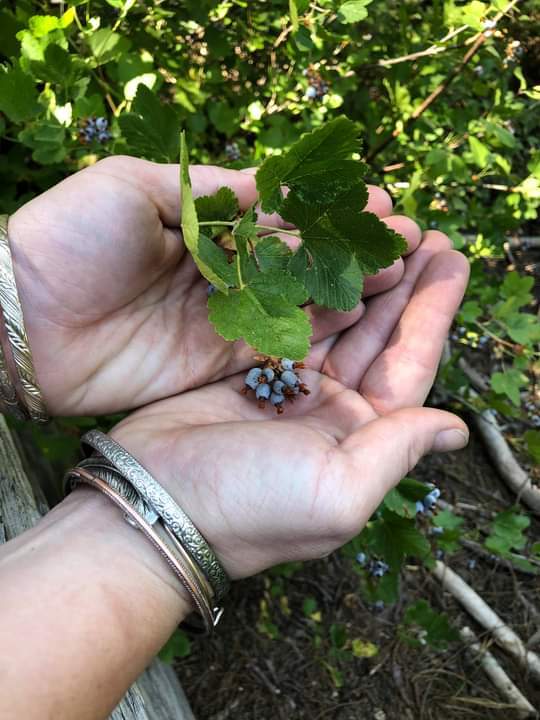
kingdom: Plantae
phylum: Tracheophyta
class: Magnoliopsida
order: Saxifragales
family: Grossulariaceae
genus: Ribes
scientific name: Ribes nevadense
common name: Mountain pink currant
